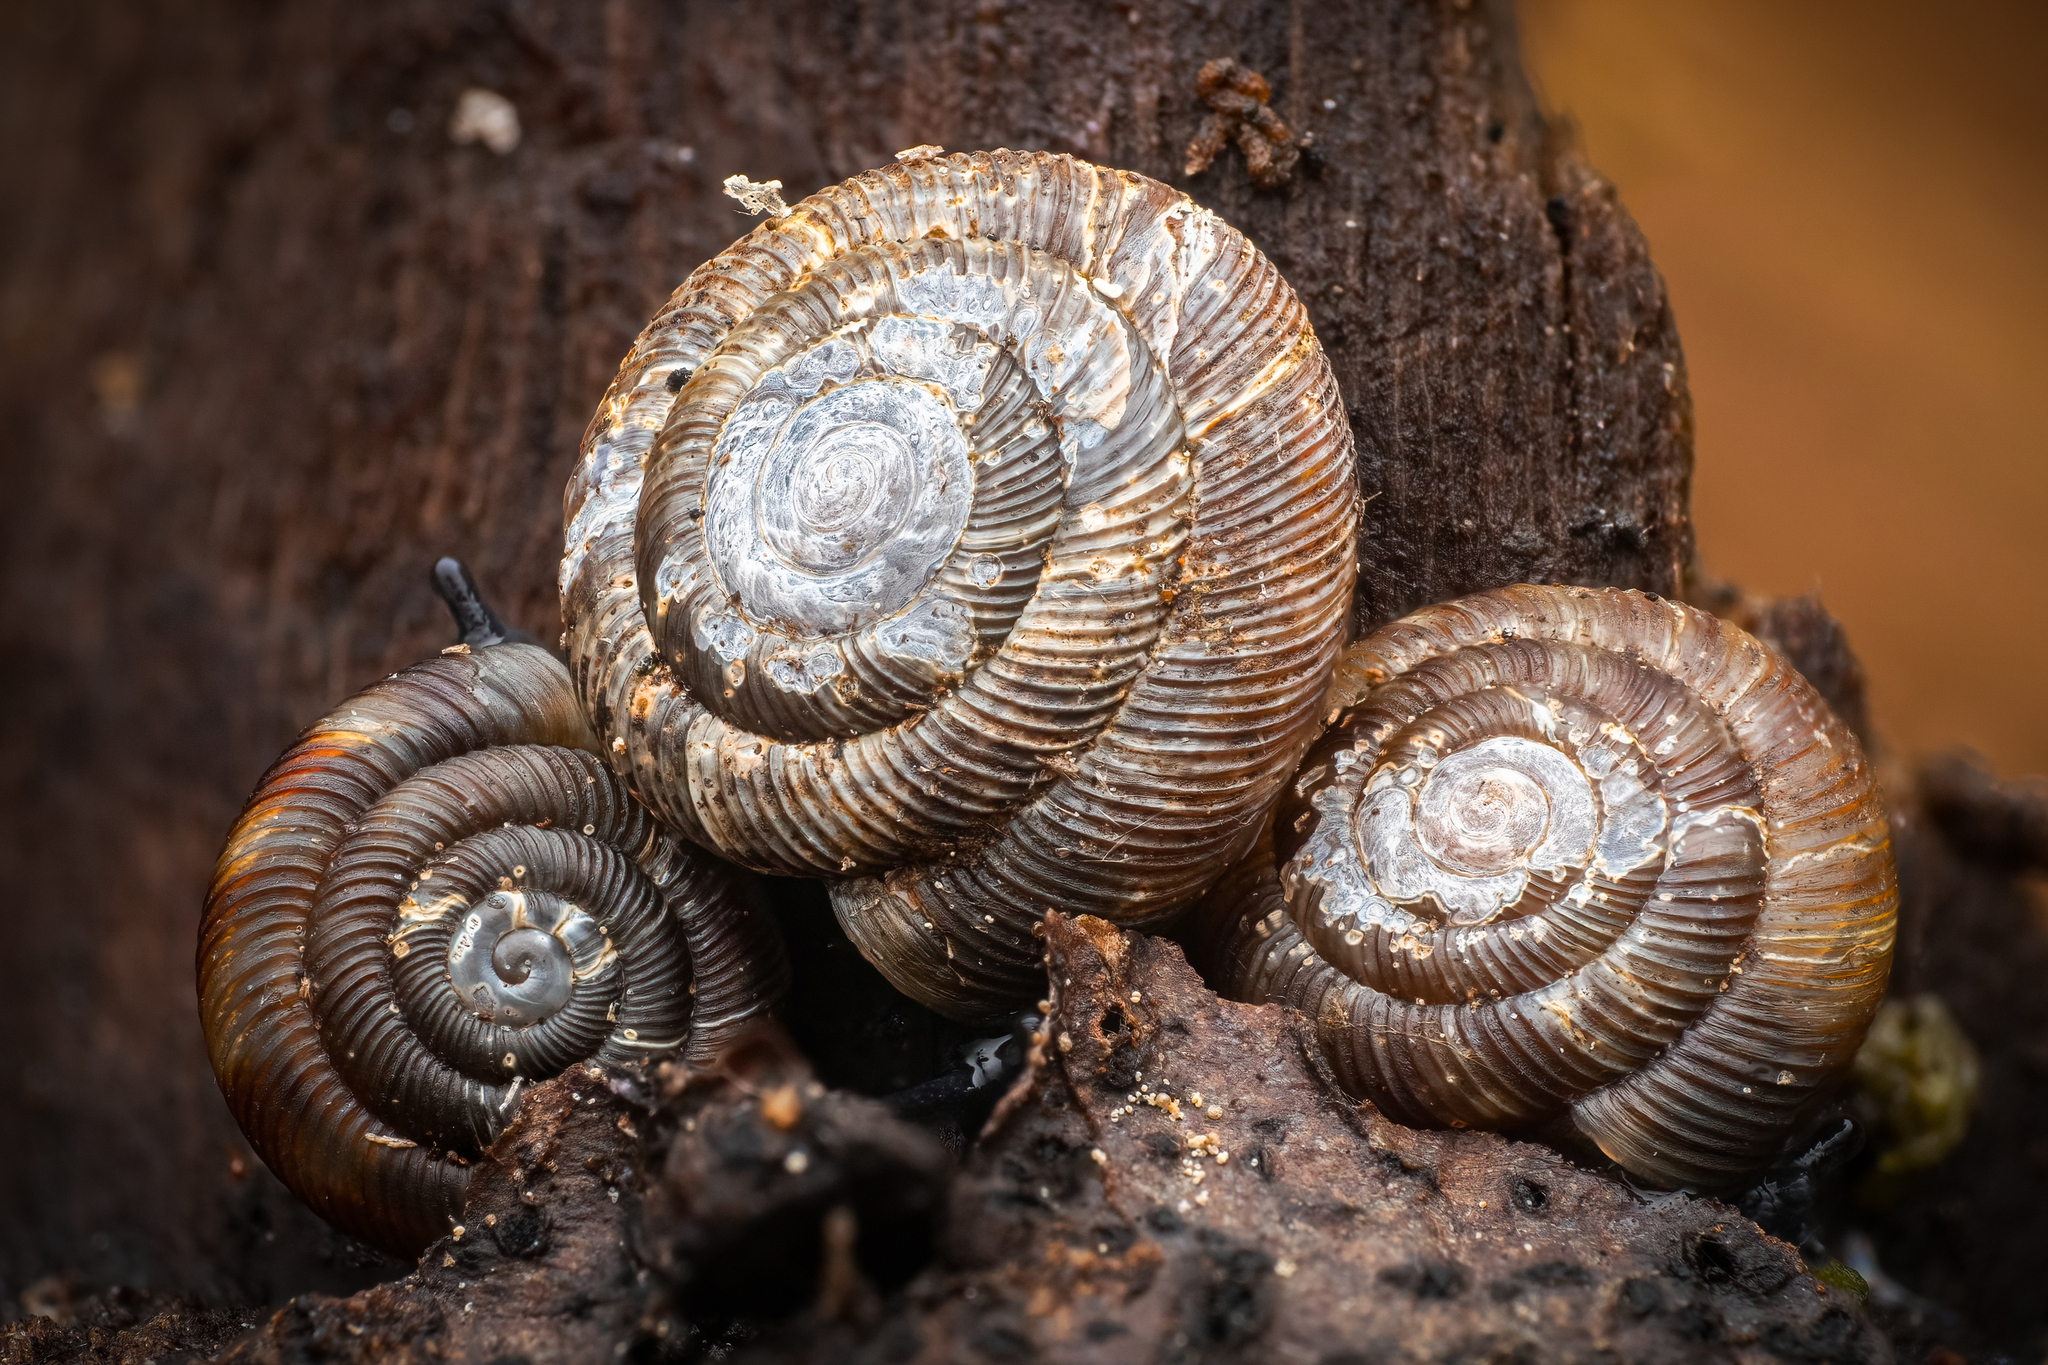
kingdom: Animalia
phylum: Mollusca
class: Gastropoda
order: Stylommatophora
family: Discidae
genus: Discus
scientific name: Discus rotundatus
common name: Rounded snail
